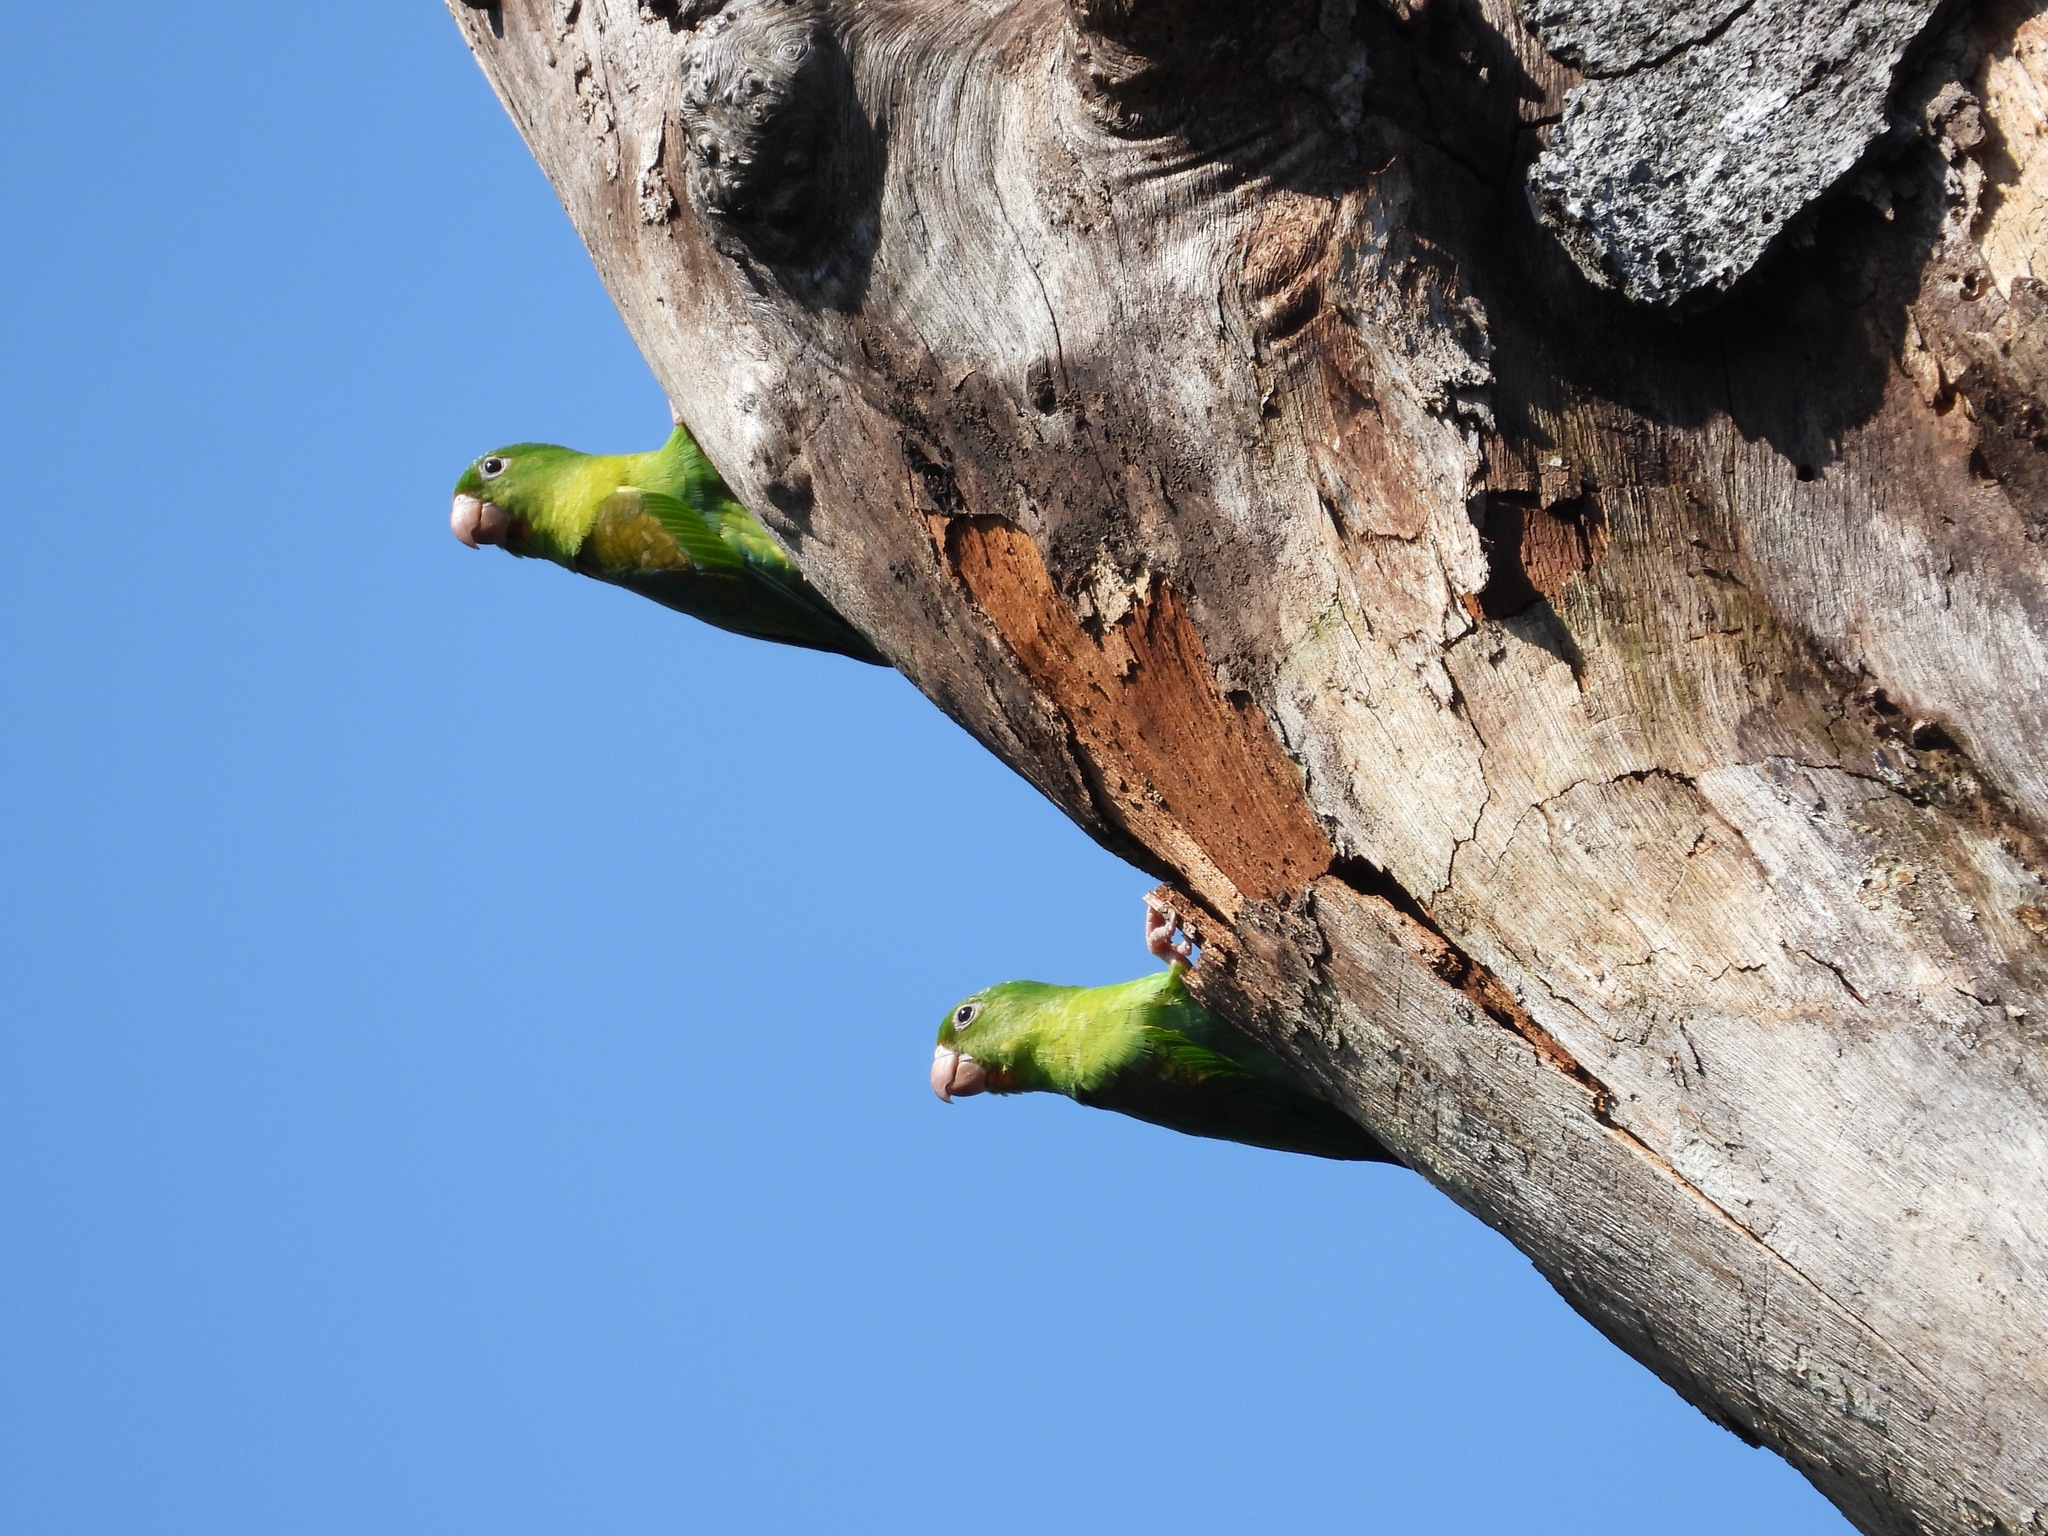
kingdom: Animalia
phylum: Chordata
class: Aves
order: Psittaciformes
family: Psittacidae
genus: Brotogeris
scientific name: Brotogeris jugularis
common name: Orange-chinned parakeet
